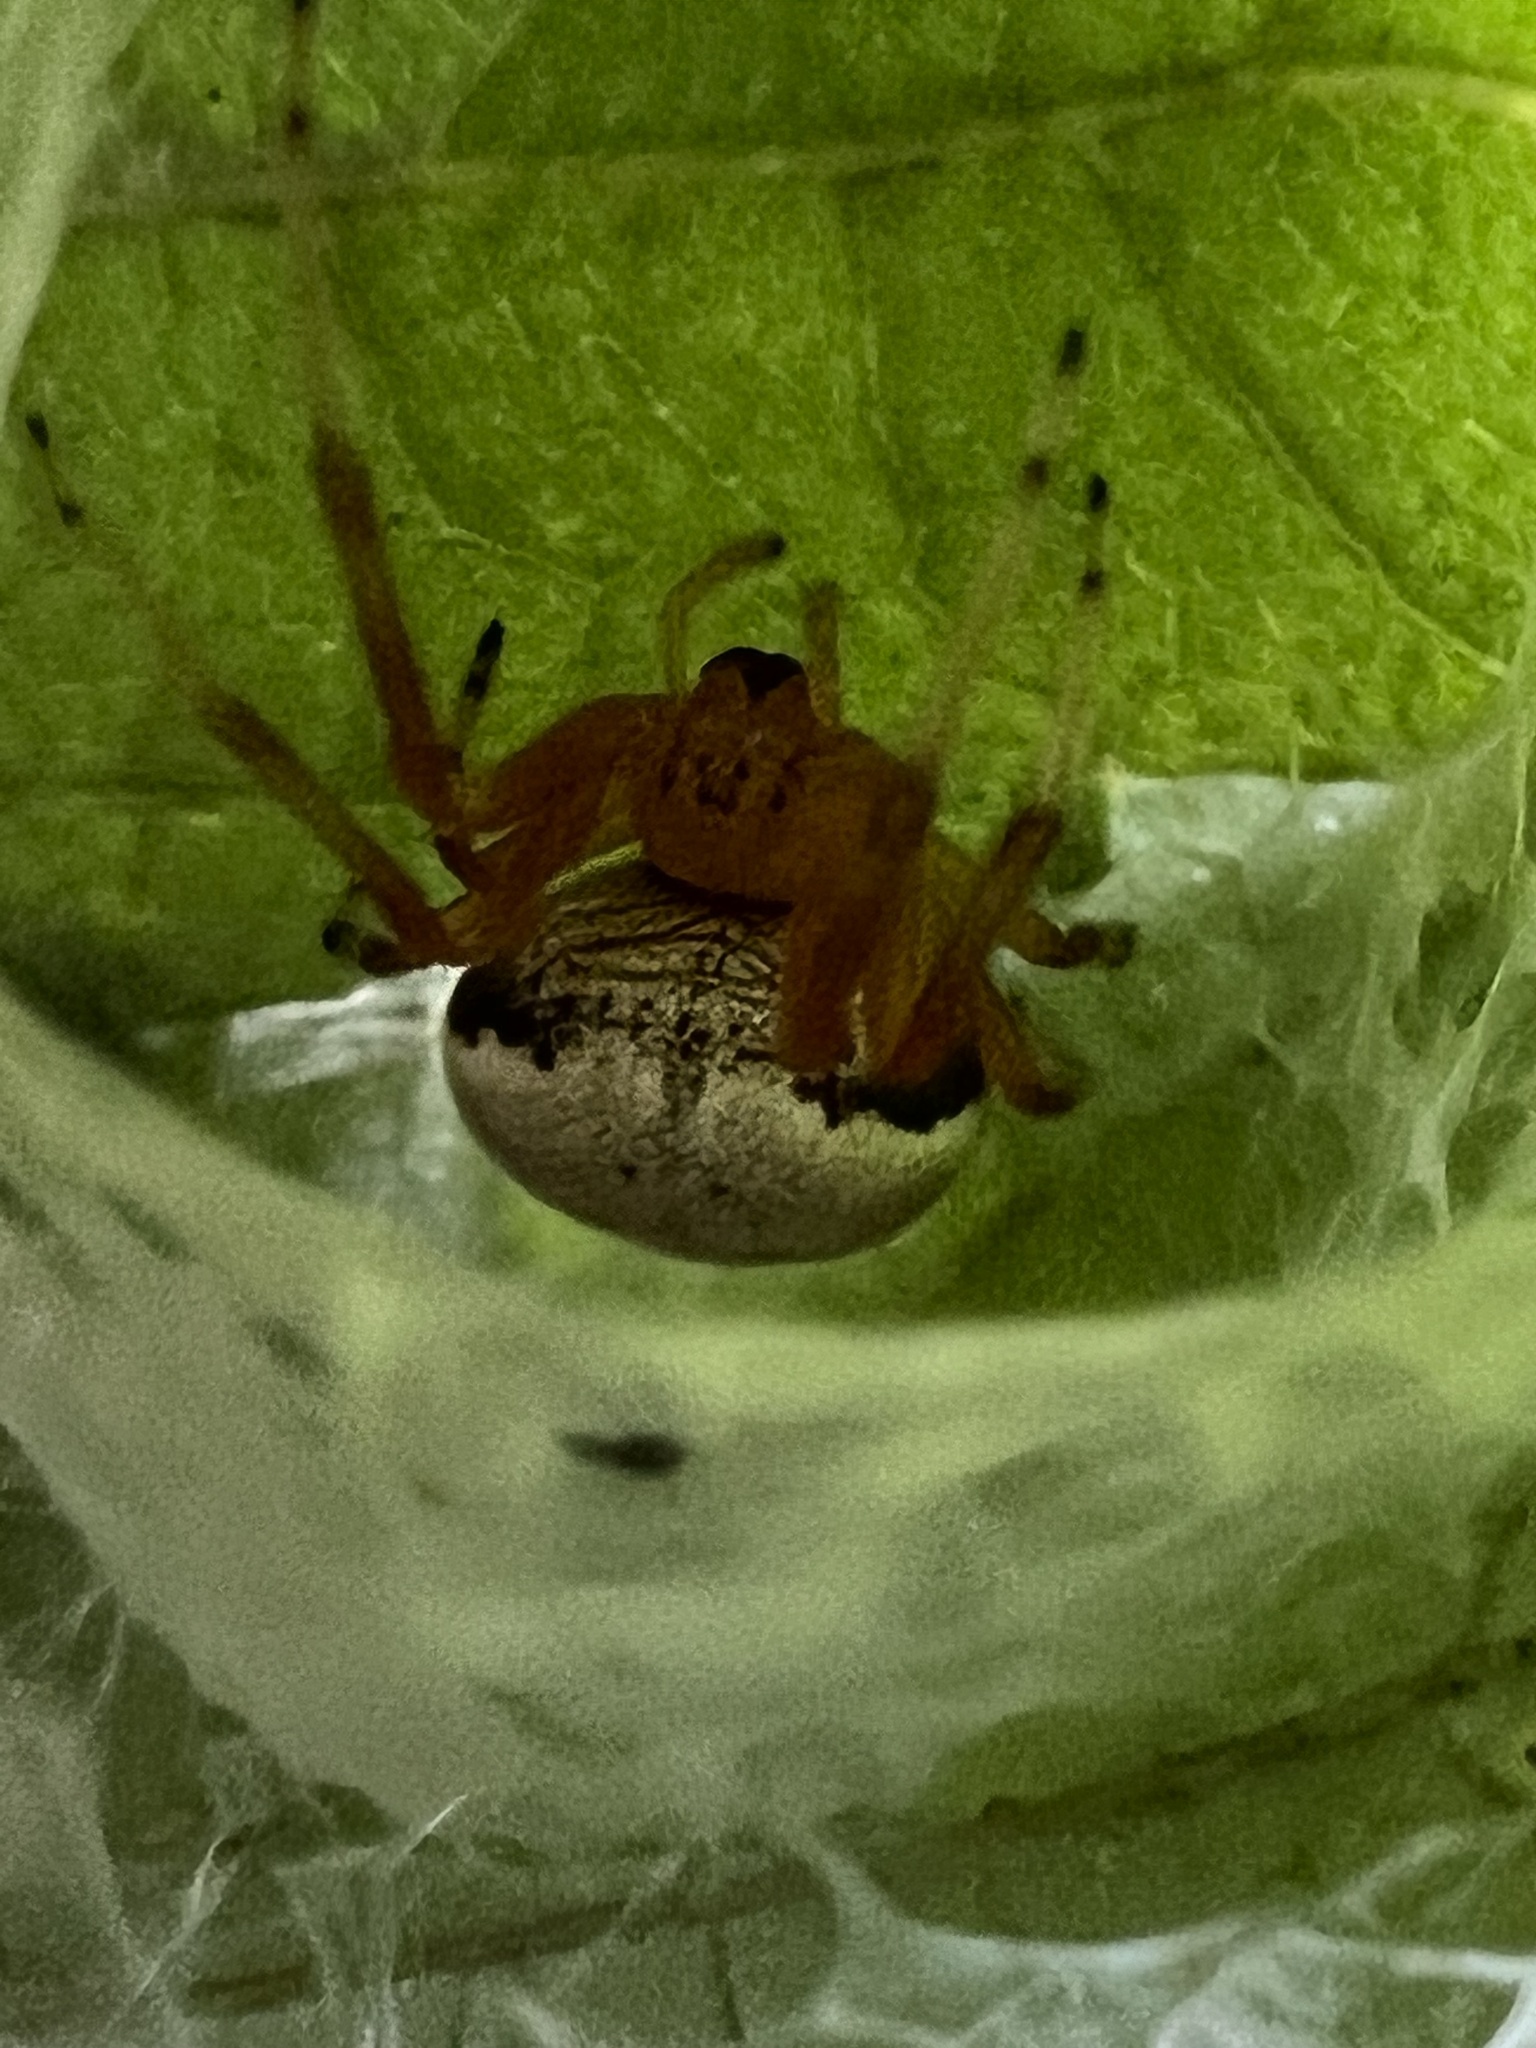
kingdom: Animalia
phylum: Arthropoda
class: Arachnida
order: Araneae
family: Araneidae
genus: Araneus
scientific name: Araneus thaddeus
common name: Lattice orbweaver
